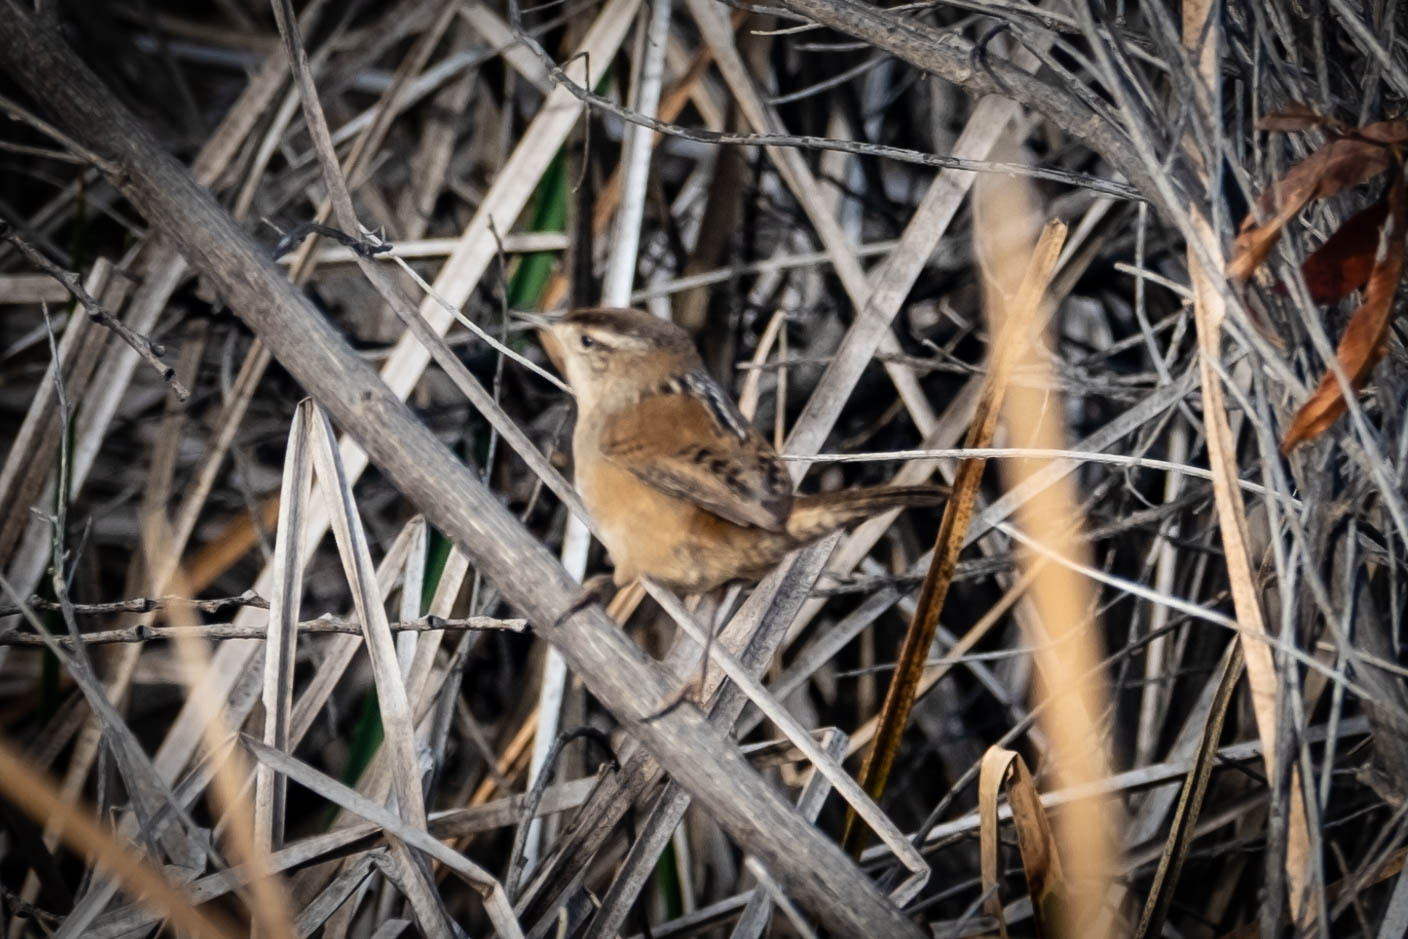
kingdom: Animalia
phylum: Chordata
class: Aves
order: Passeriformes
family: Troglodytidae
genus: Cistothorus
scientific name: Cistothorus palustris
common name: Marsh wren
